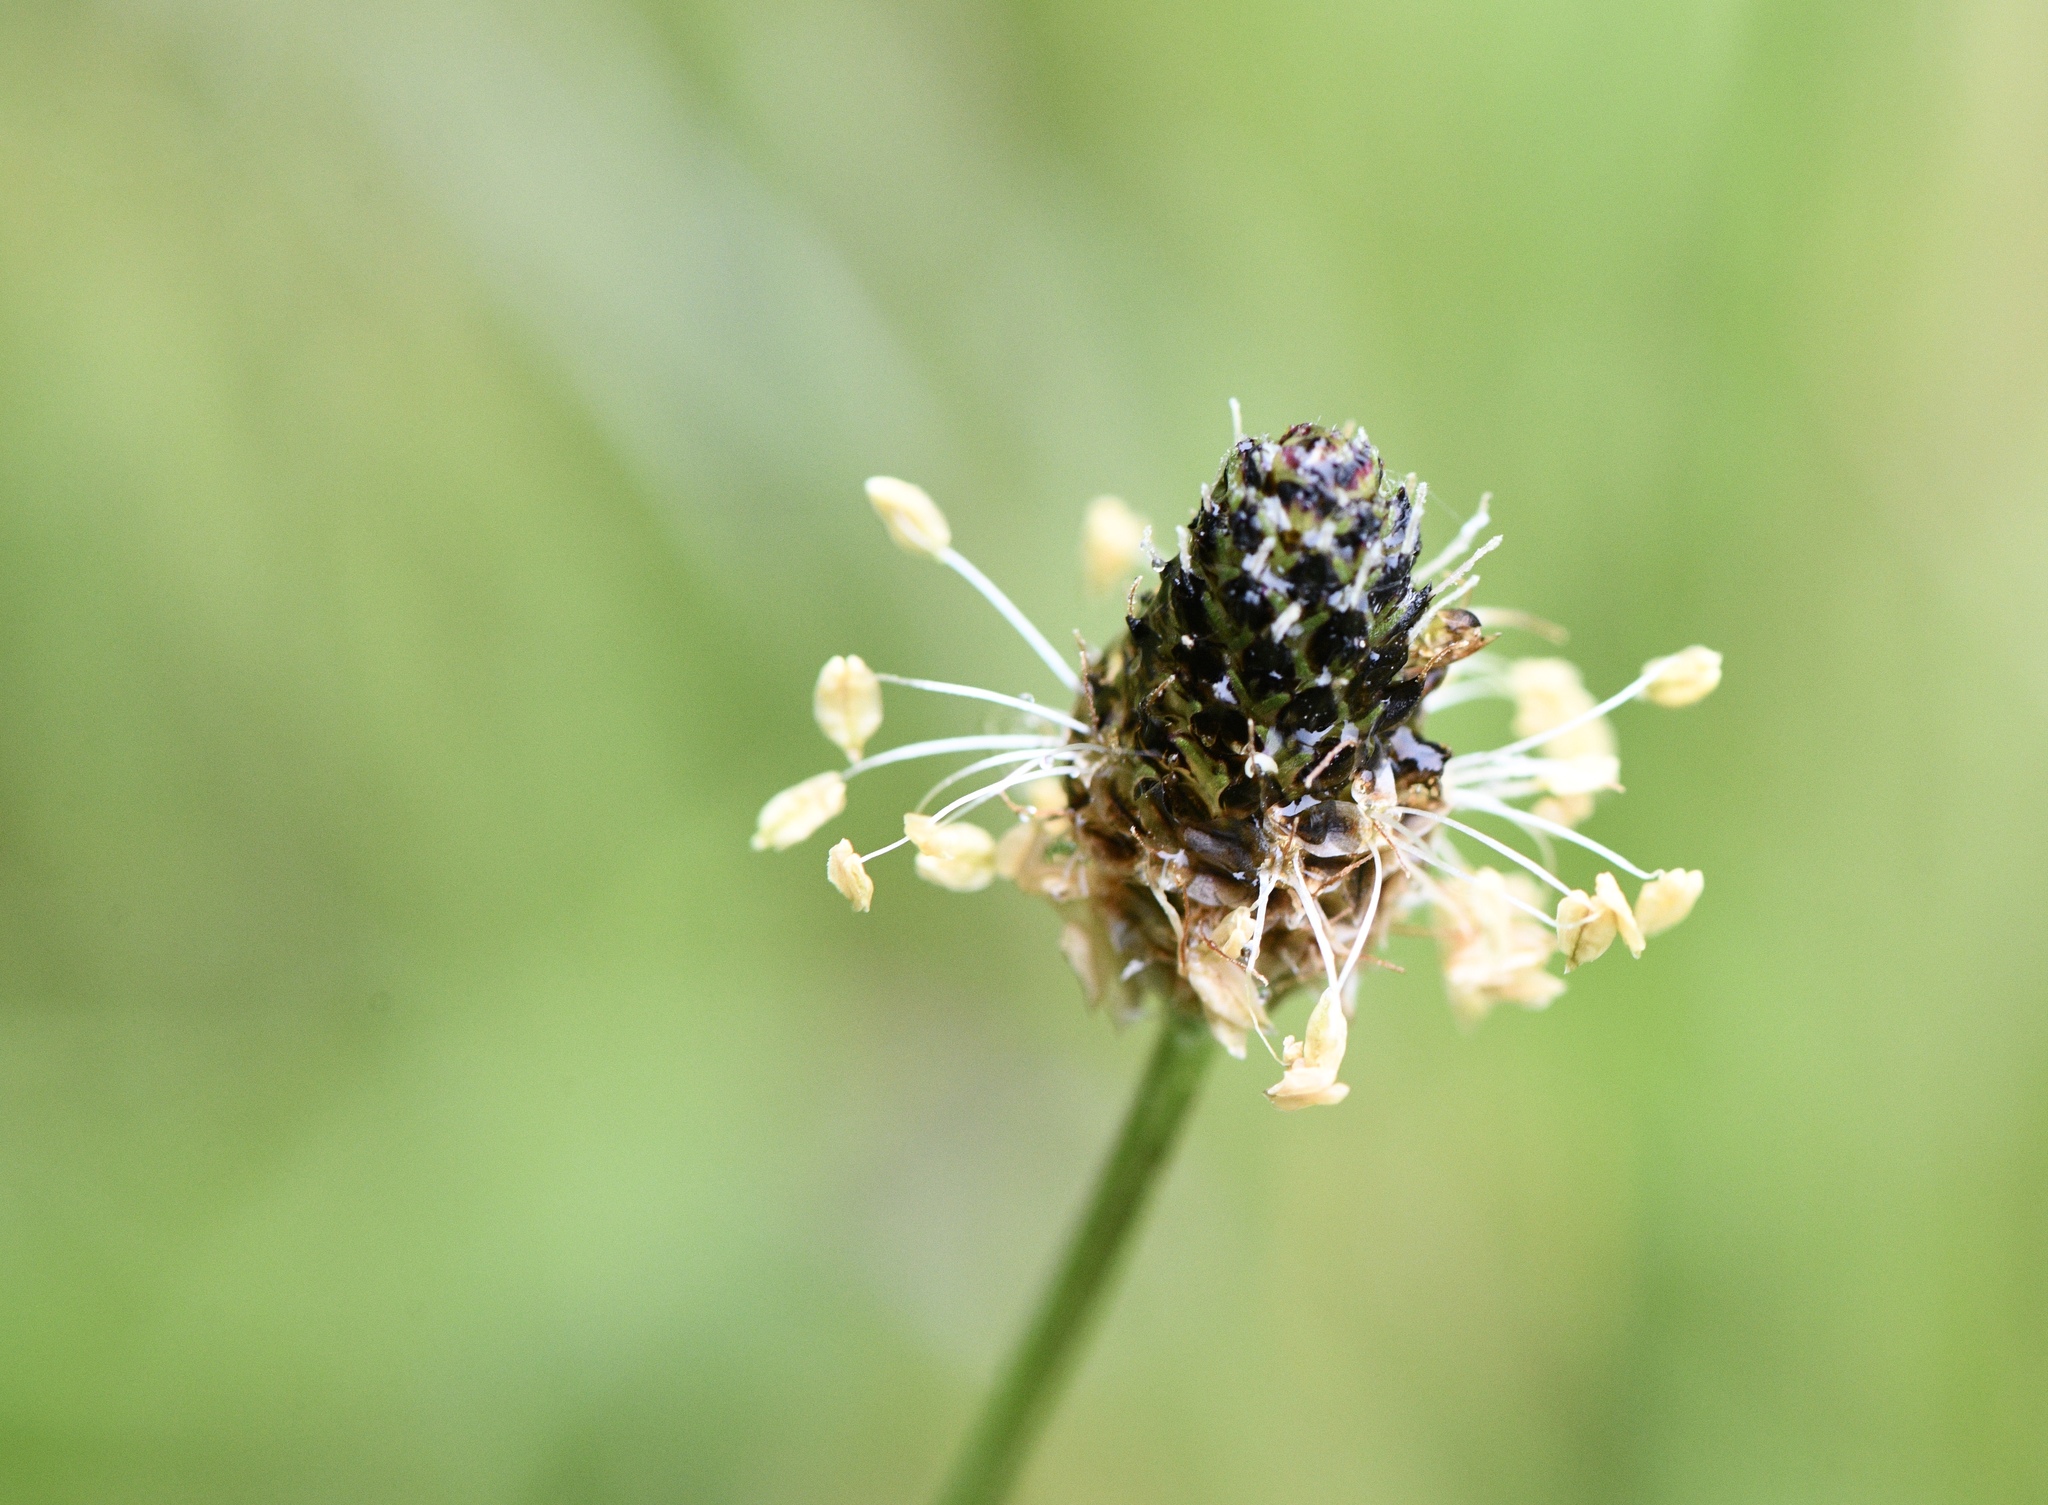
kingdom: Plantae
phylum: Tracheophyta
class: Magnoliopsida
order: Lamiales
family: Plantaginaceae
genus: Plantago
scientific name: Plantago lanceolata
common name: Ribwort plantain
